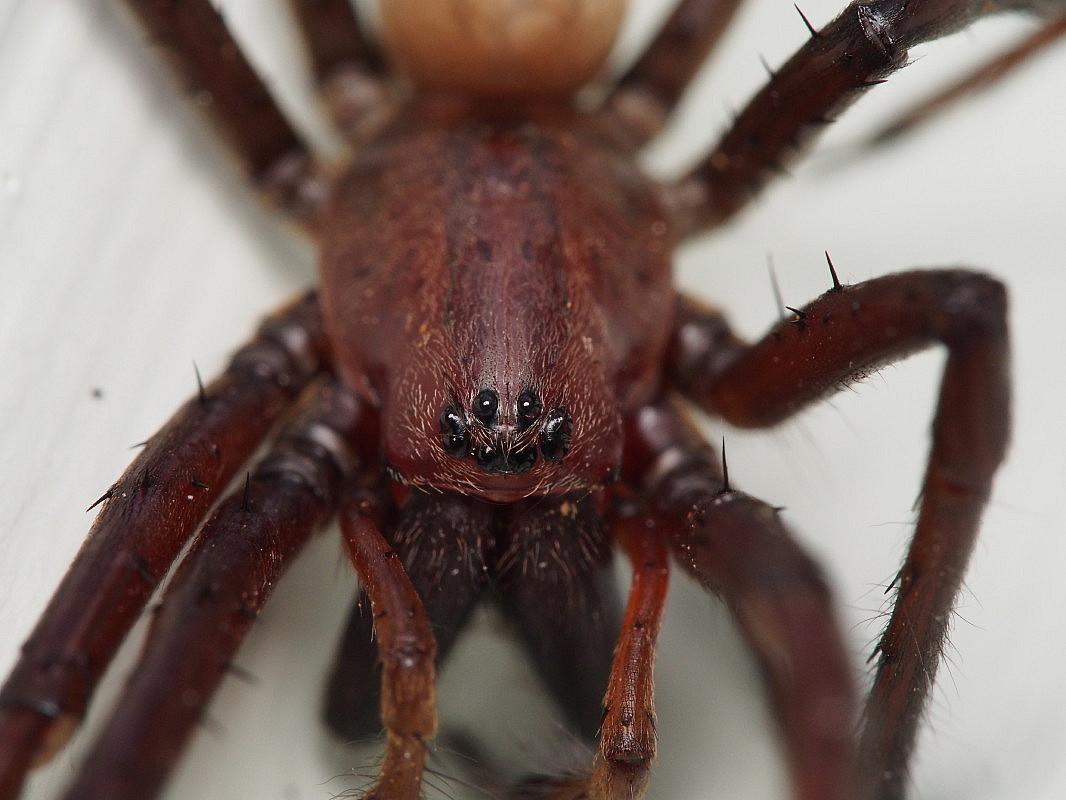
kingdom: Animalia
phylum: Arthropoda
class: Arachnida
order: Araneae
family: Desidae
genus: Cambridgea
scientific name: Cambridgea foliata
